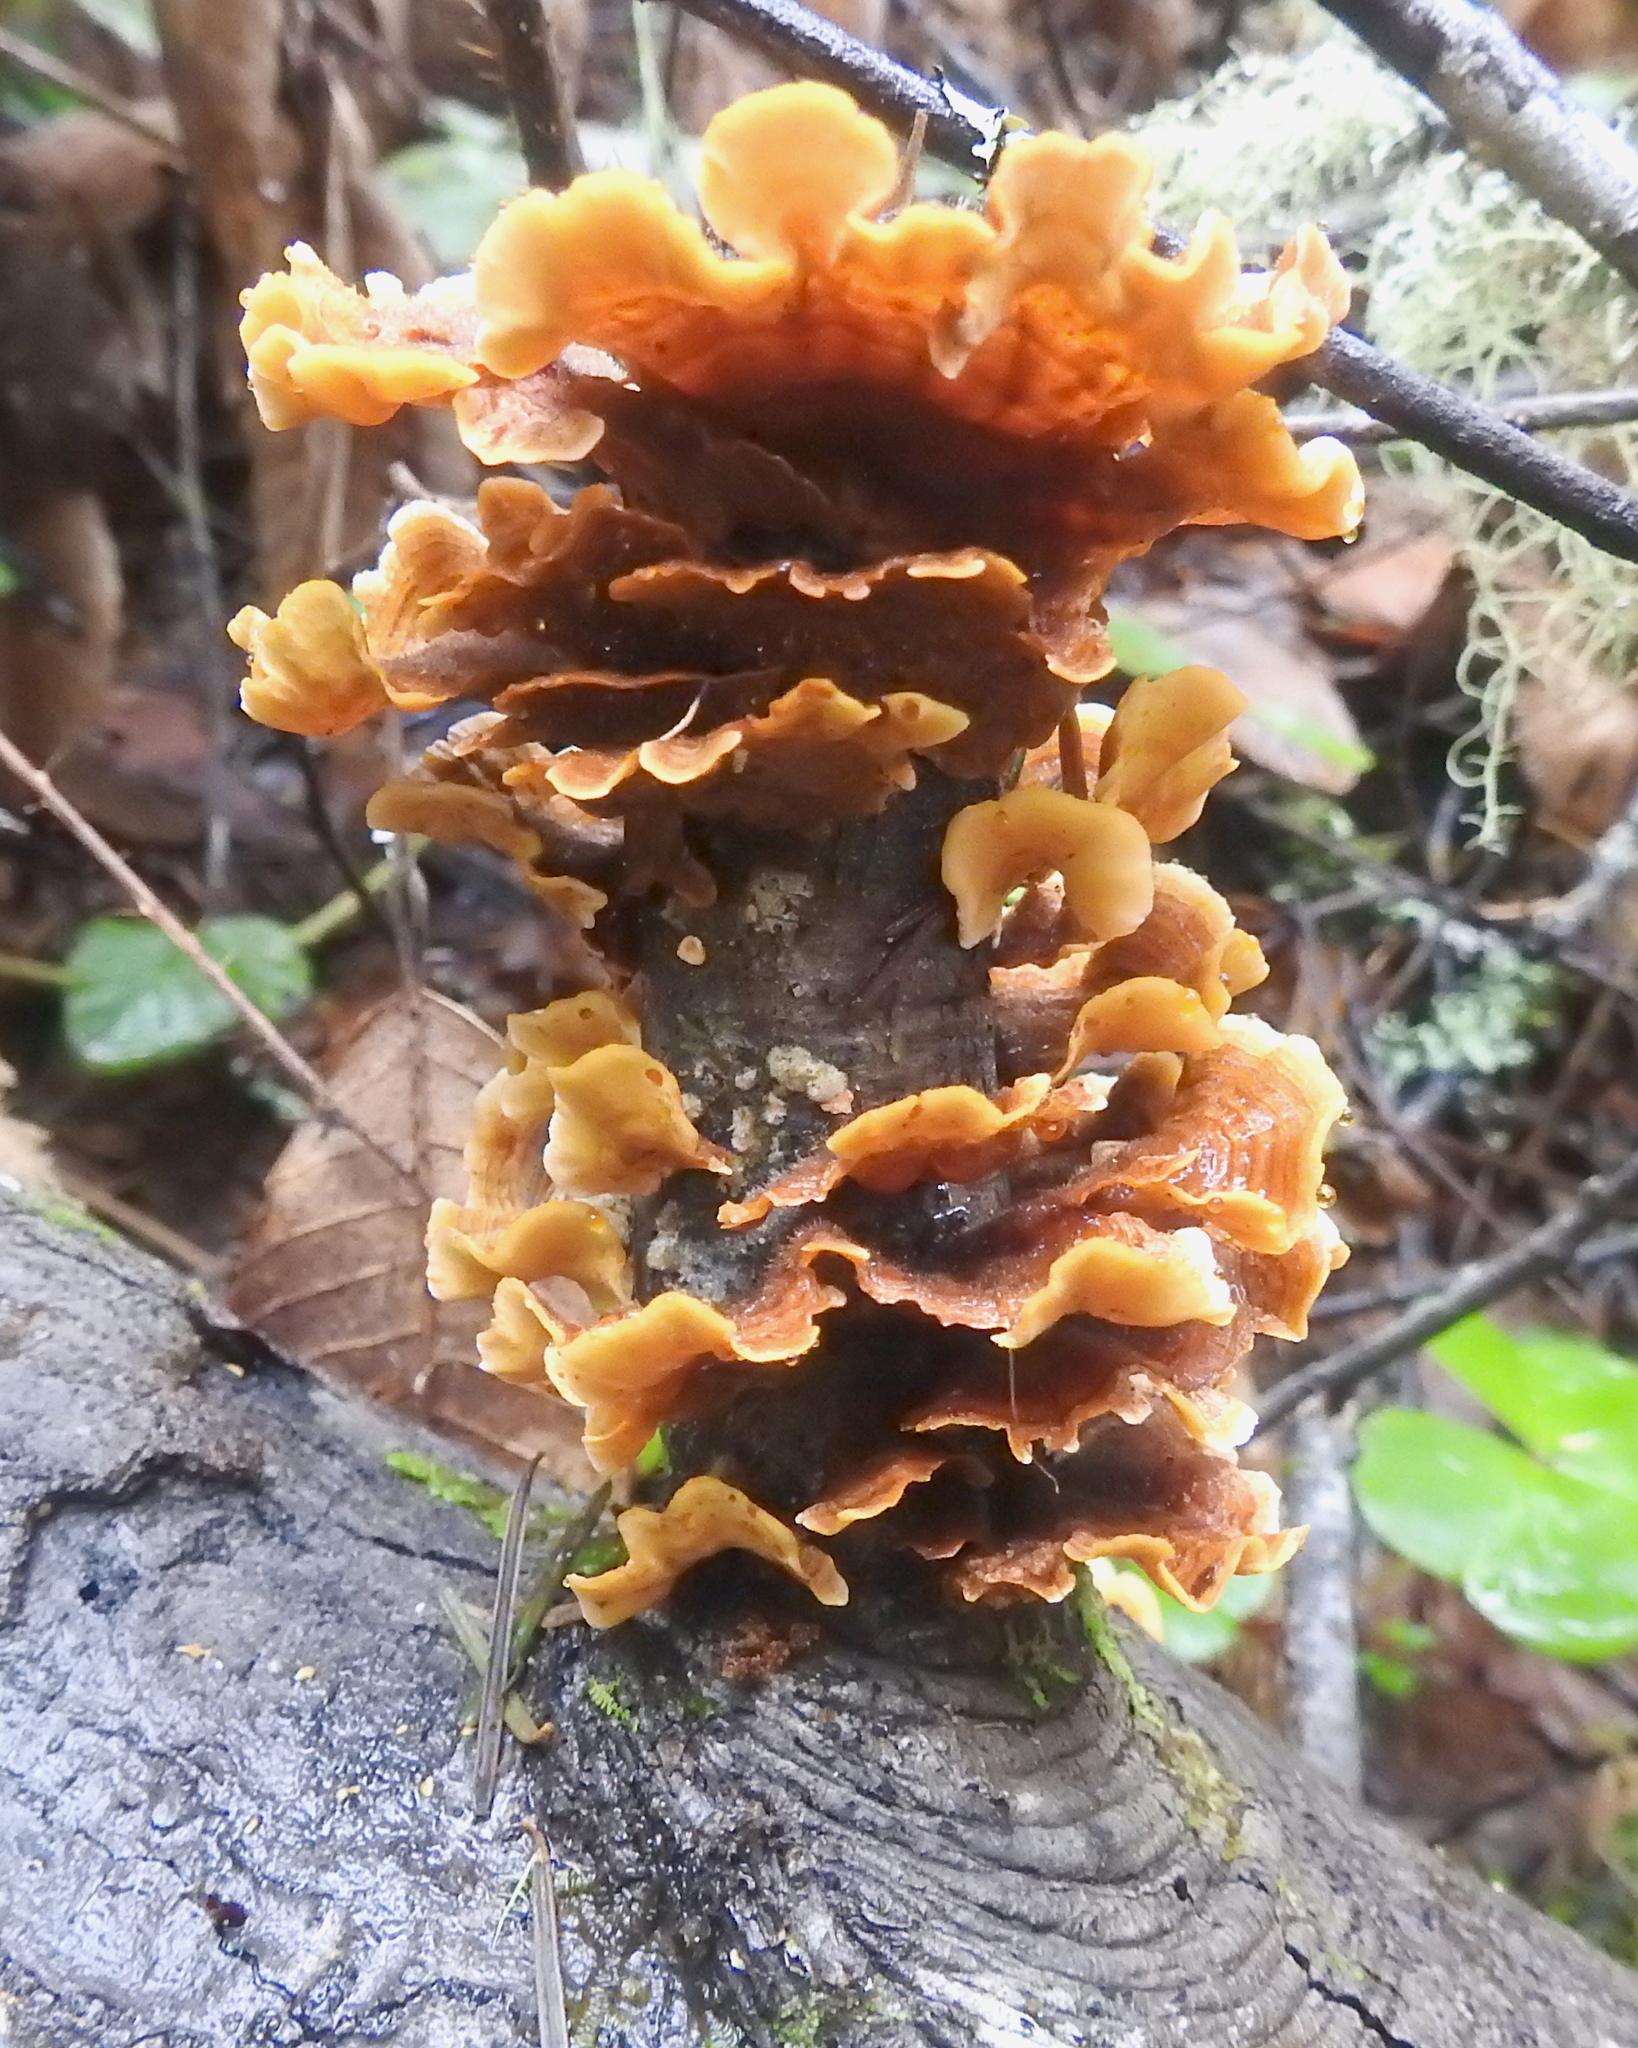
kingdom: Fungi
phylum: Basidiomycota
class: Agaricomycetes
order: Russulales
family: Stereaceae
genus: Stereum
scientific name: Stereum hirsutum
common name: Hairy curtain crust
